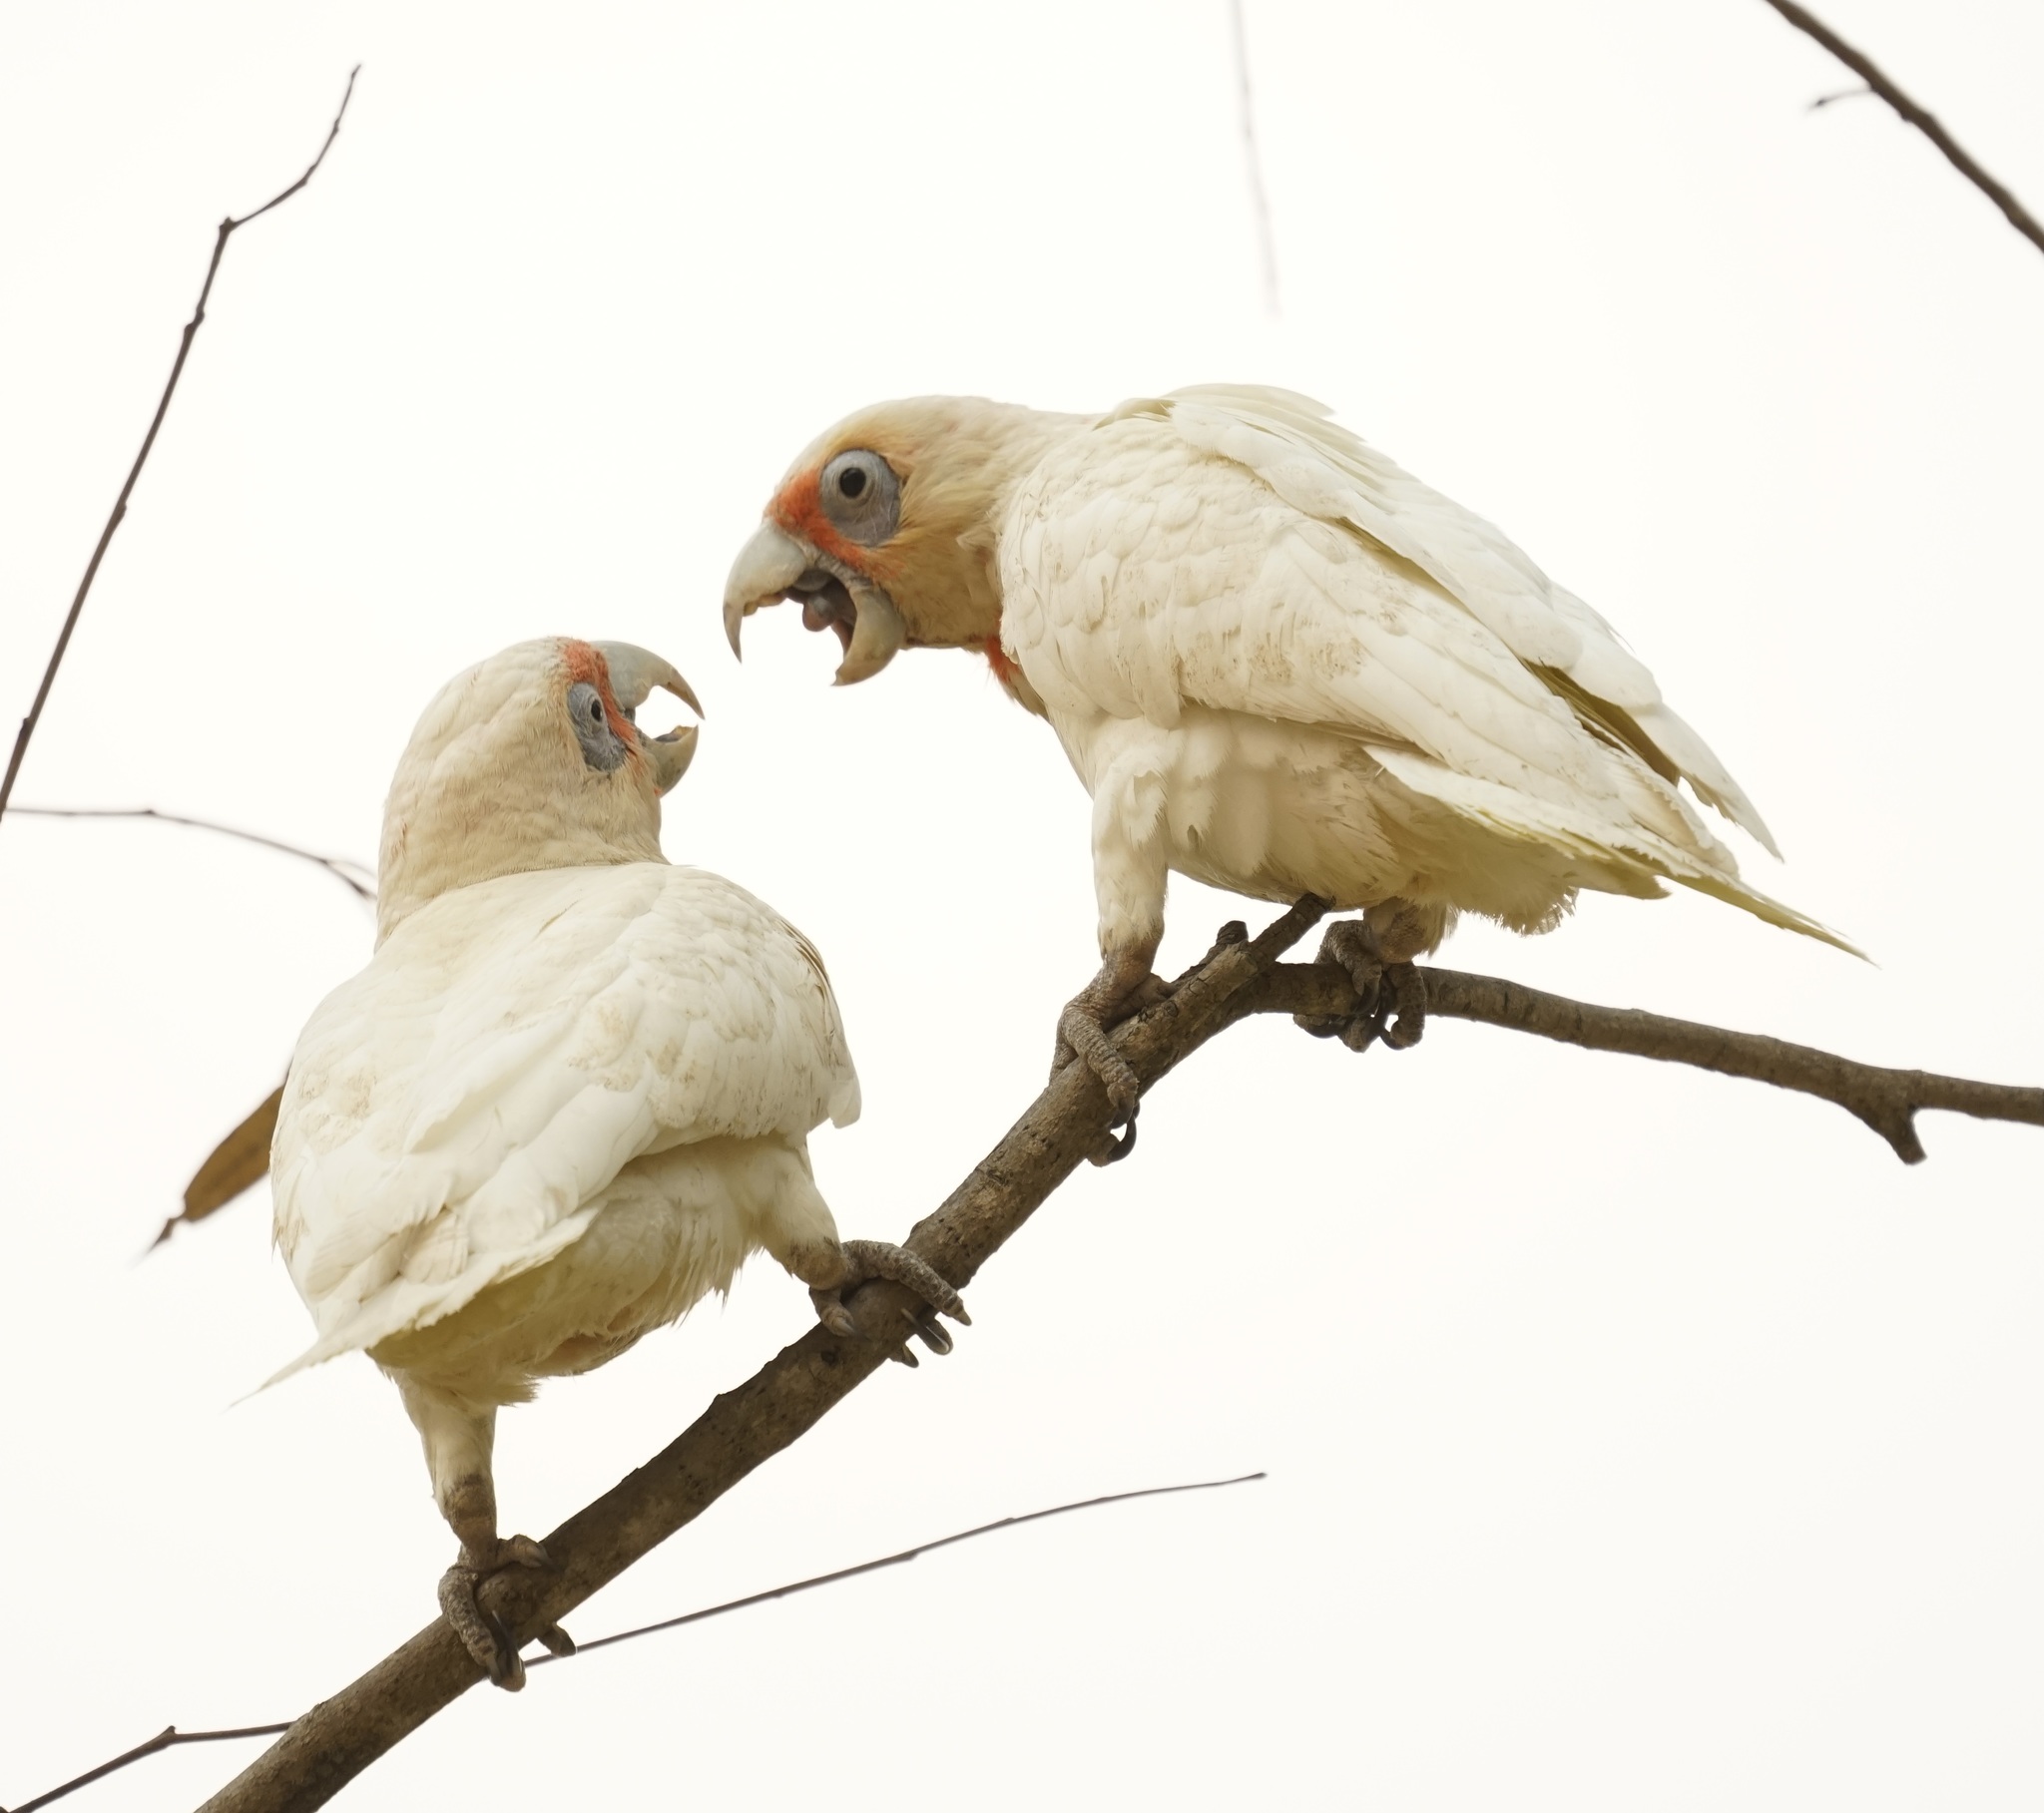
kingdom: Animalia
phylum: Chordata
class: Aves
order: Psittaciformes
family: Psittacidae
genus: Cacatua
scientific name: Cacatua tenuirostris
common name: Long-billed corella
